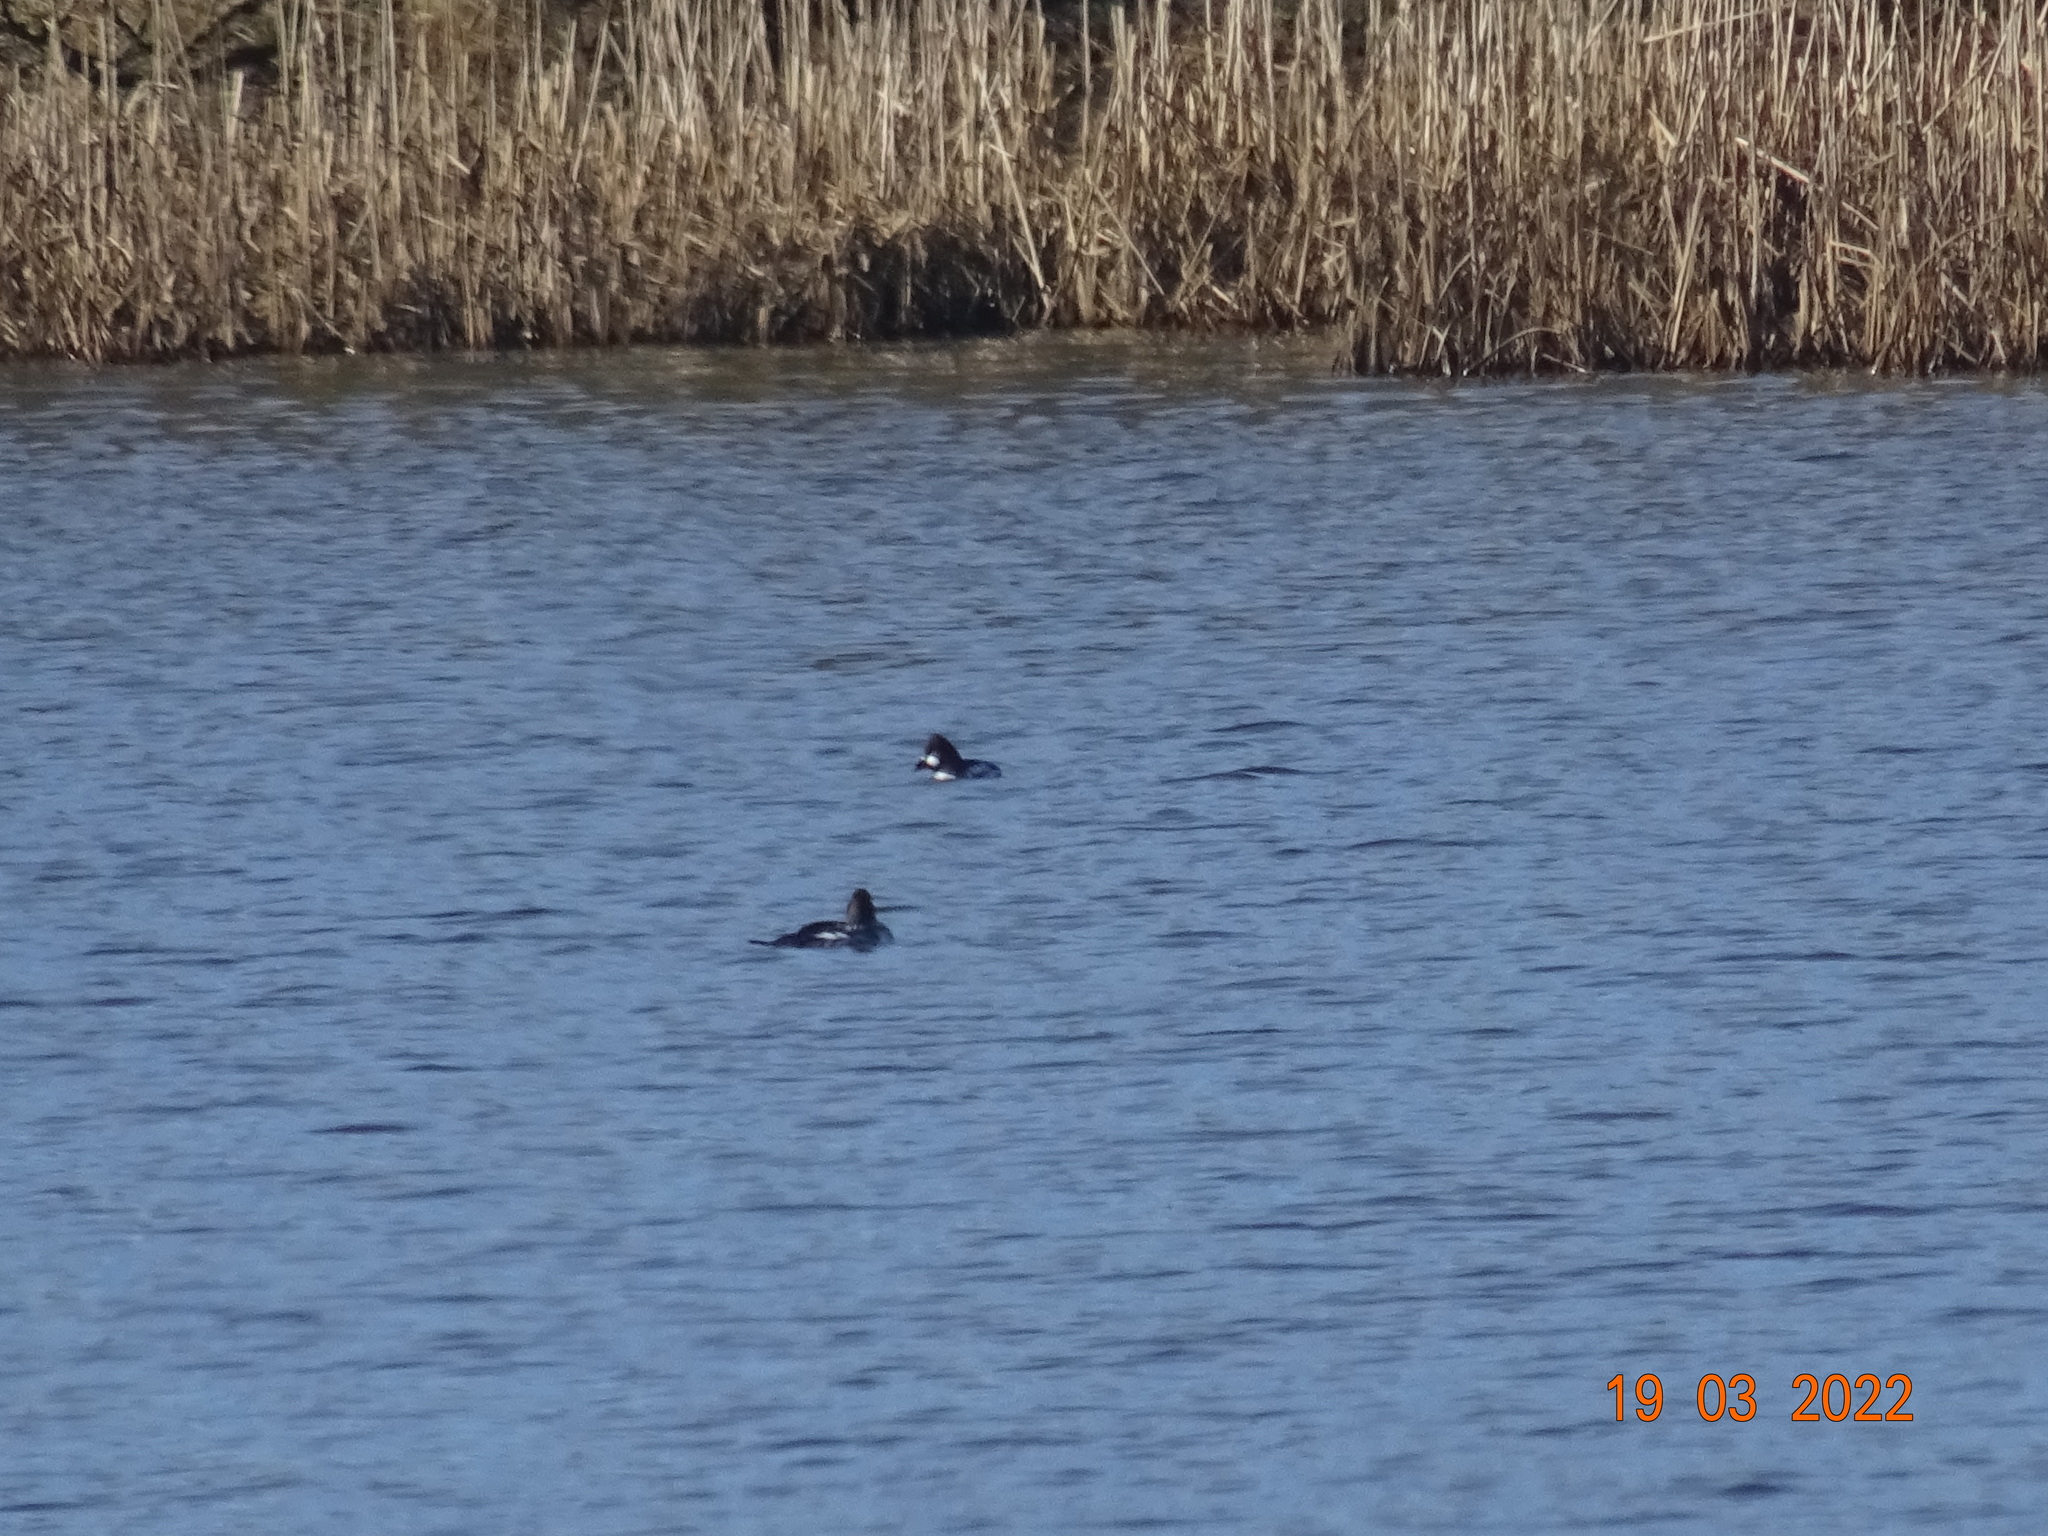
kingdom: Animalia
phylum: Chordata
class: Aves
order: Anseriformes
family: Anatidae
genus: Bucephala
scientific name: Bucephala clangula
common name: Common goldeneye
